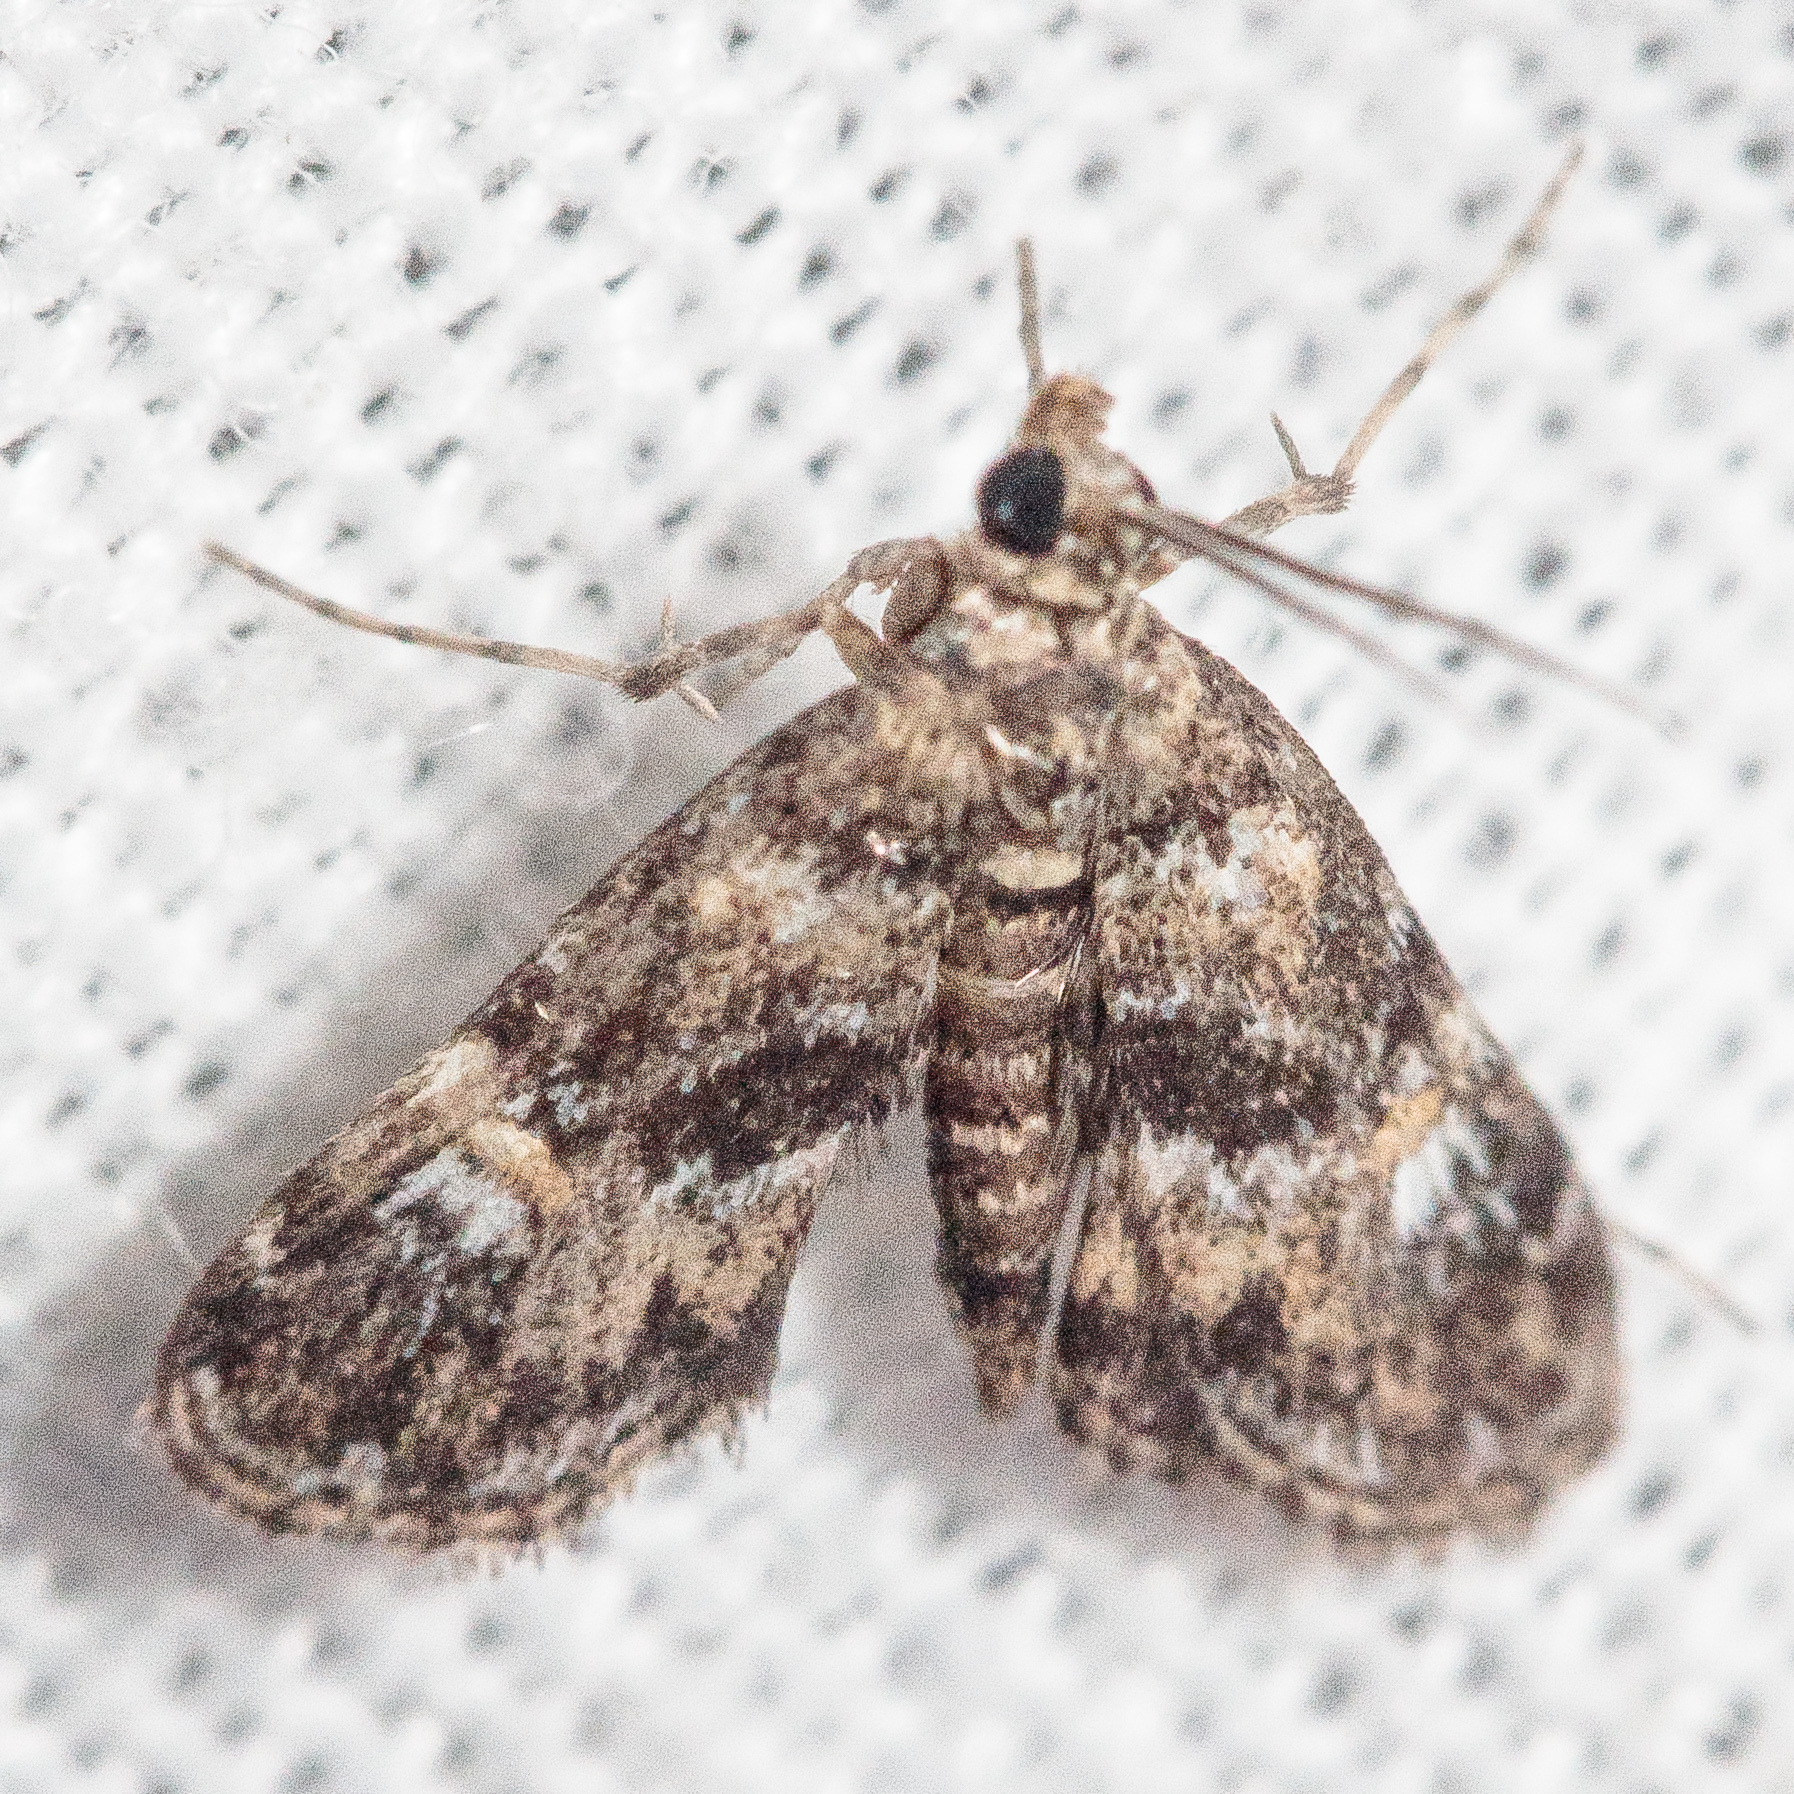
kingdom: Animalia
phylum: Arthropoda
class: Insecta
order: Lepidoptera
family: Crambidae
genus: Elophila
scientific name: Elophila obliteralis
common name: Waterlily leafcutter moth
